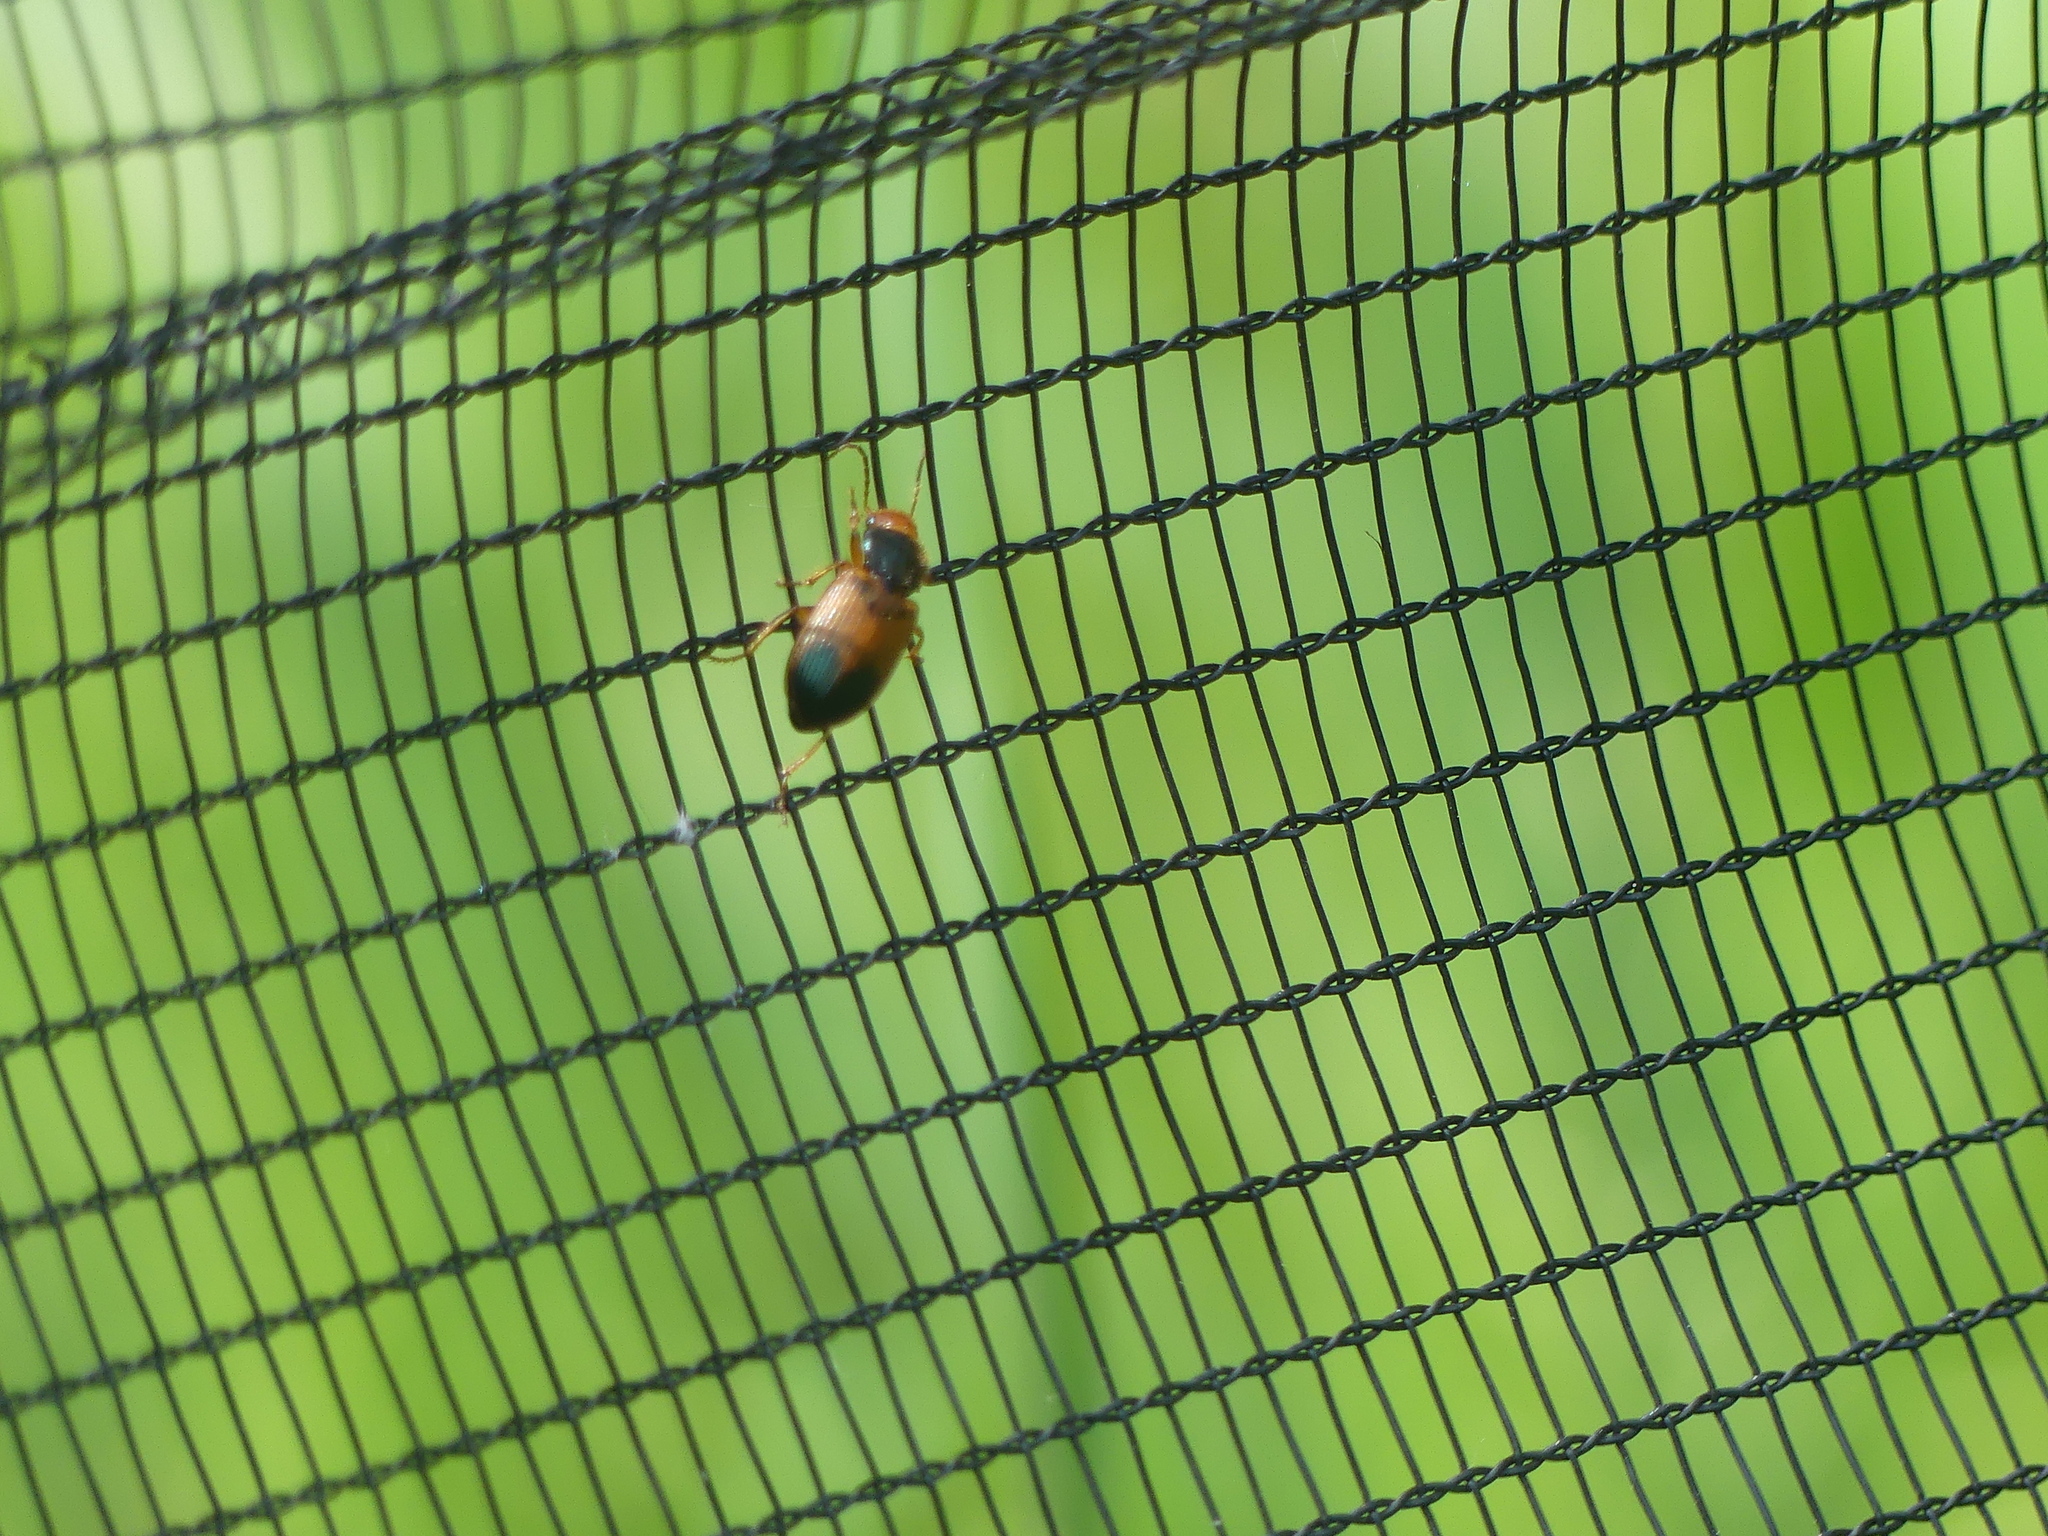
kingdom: Animalia
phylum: Arthropoda
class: Insecta
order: Coleoptera
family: Carabidae
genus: Diachromus
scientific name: Diachromus germanus
